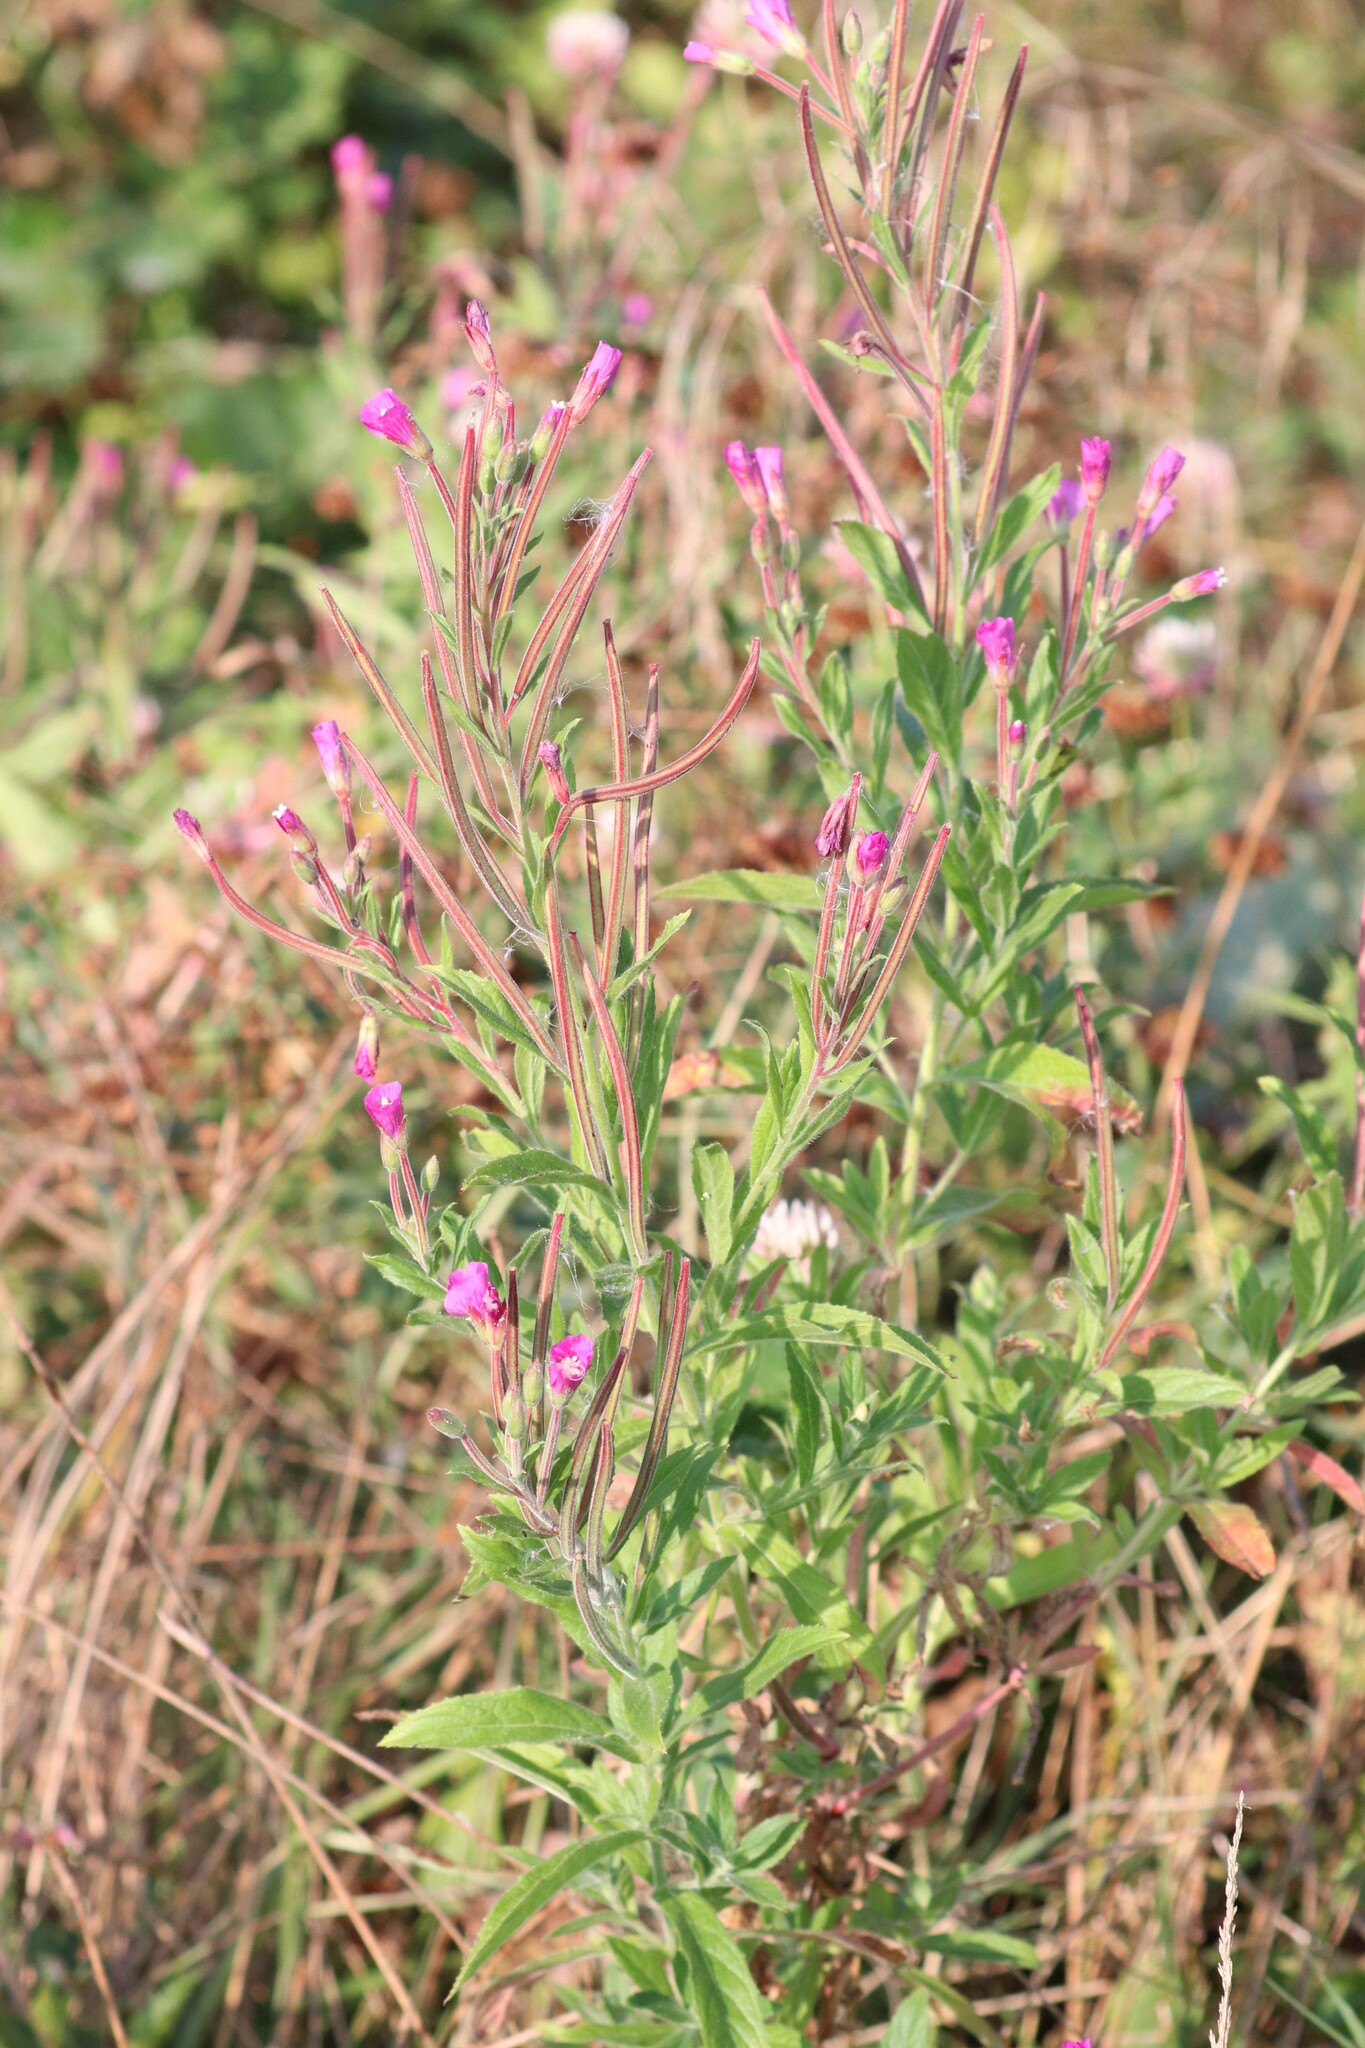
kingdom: Plantae
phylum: Tracheophyta
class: Magnoliopsida
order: Myrtales
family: Onagraceae
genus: Epilobium
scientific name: Epilobium hirsutum
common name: Great willowherb
